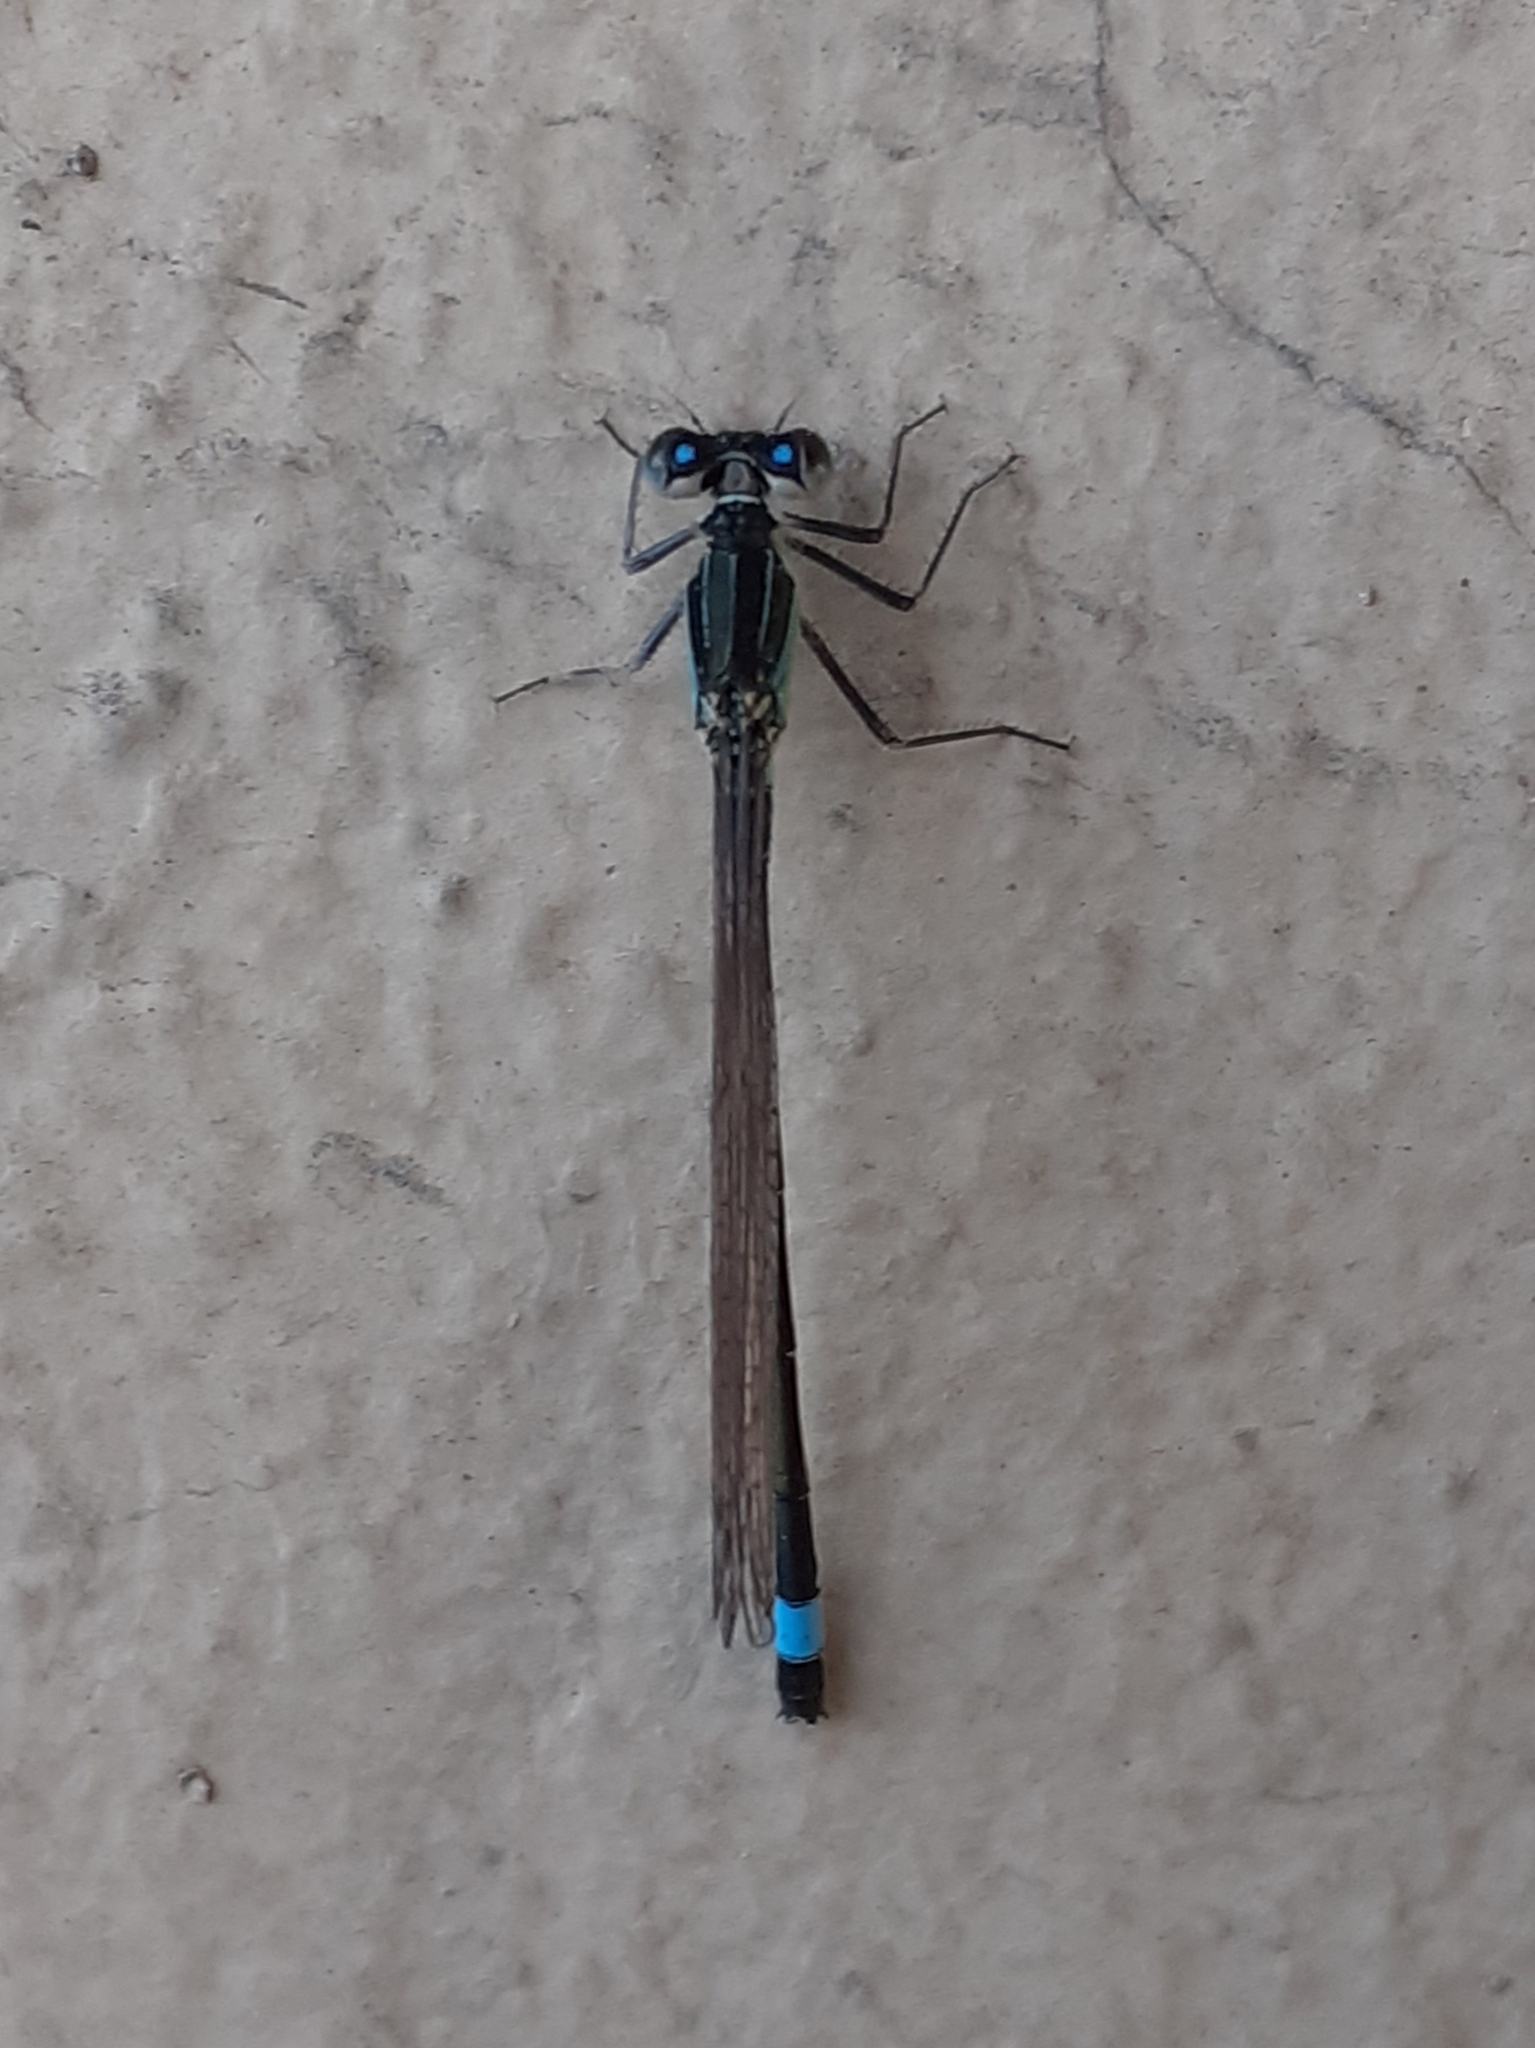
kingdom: Animalia
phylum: Arthropoda
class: Insecta
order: Odonata
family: Coenagrionidae
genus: Ischnura
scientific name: Ischnura elegans
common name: Blue-tailed damselfly
